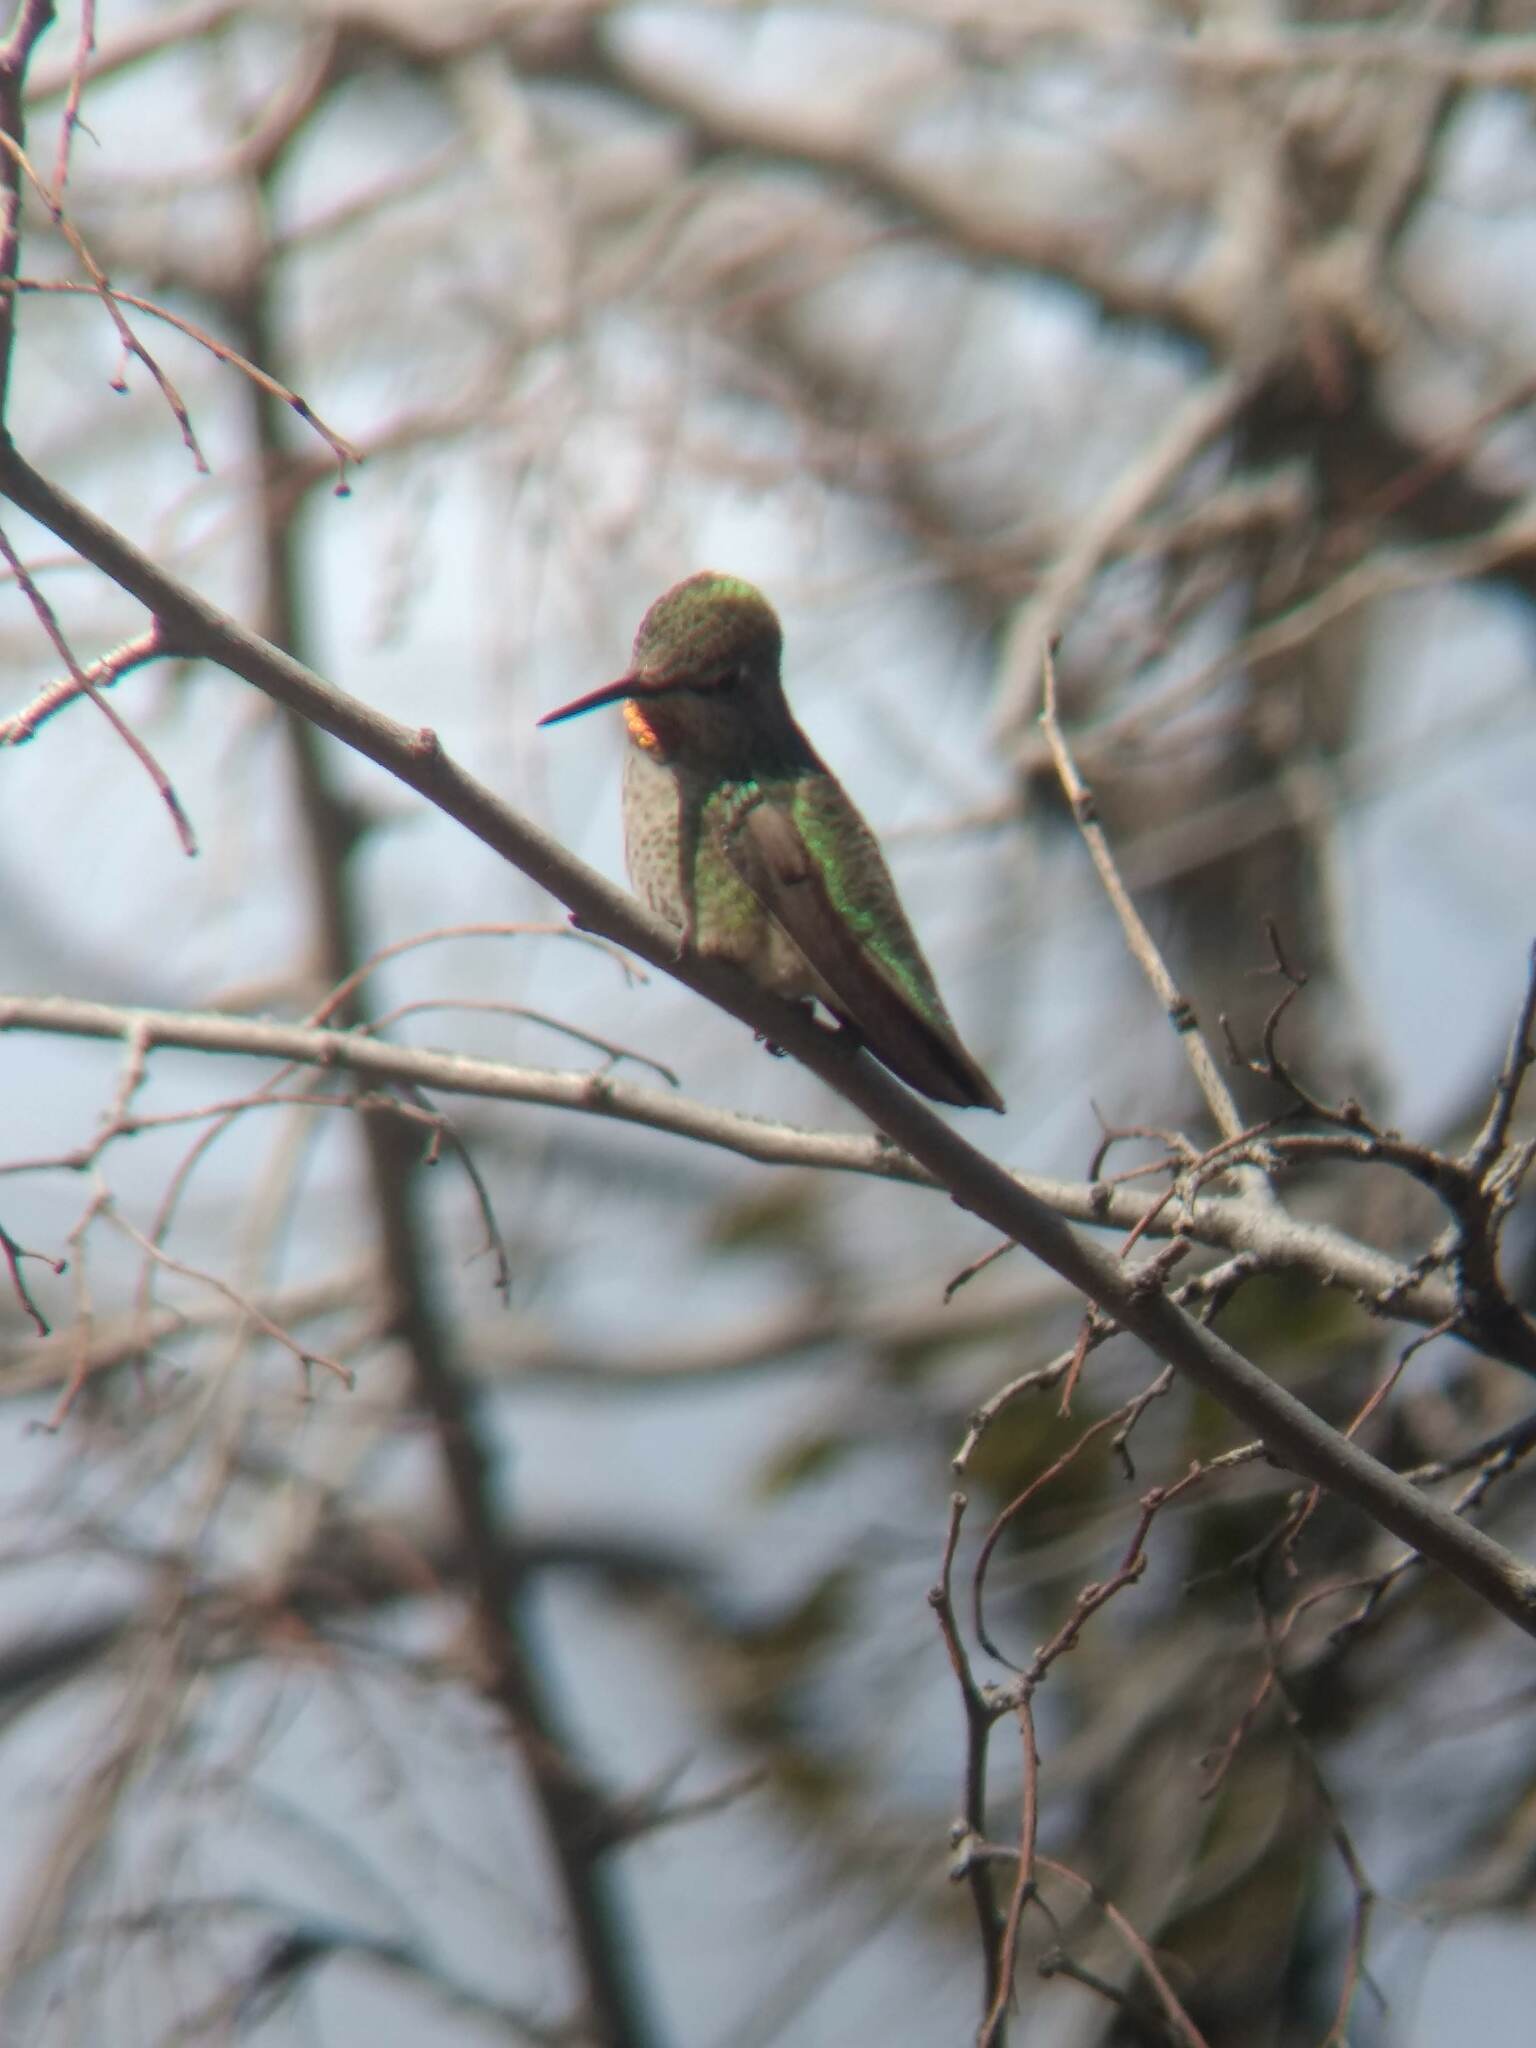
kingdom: Animalia
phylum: Chordata
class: Aves
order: Apodiformes
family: Trochilidae
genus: Calypte
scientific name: Calypte anna
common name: Anna's hummingbird
